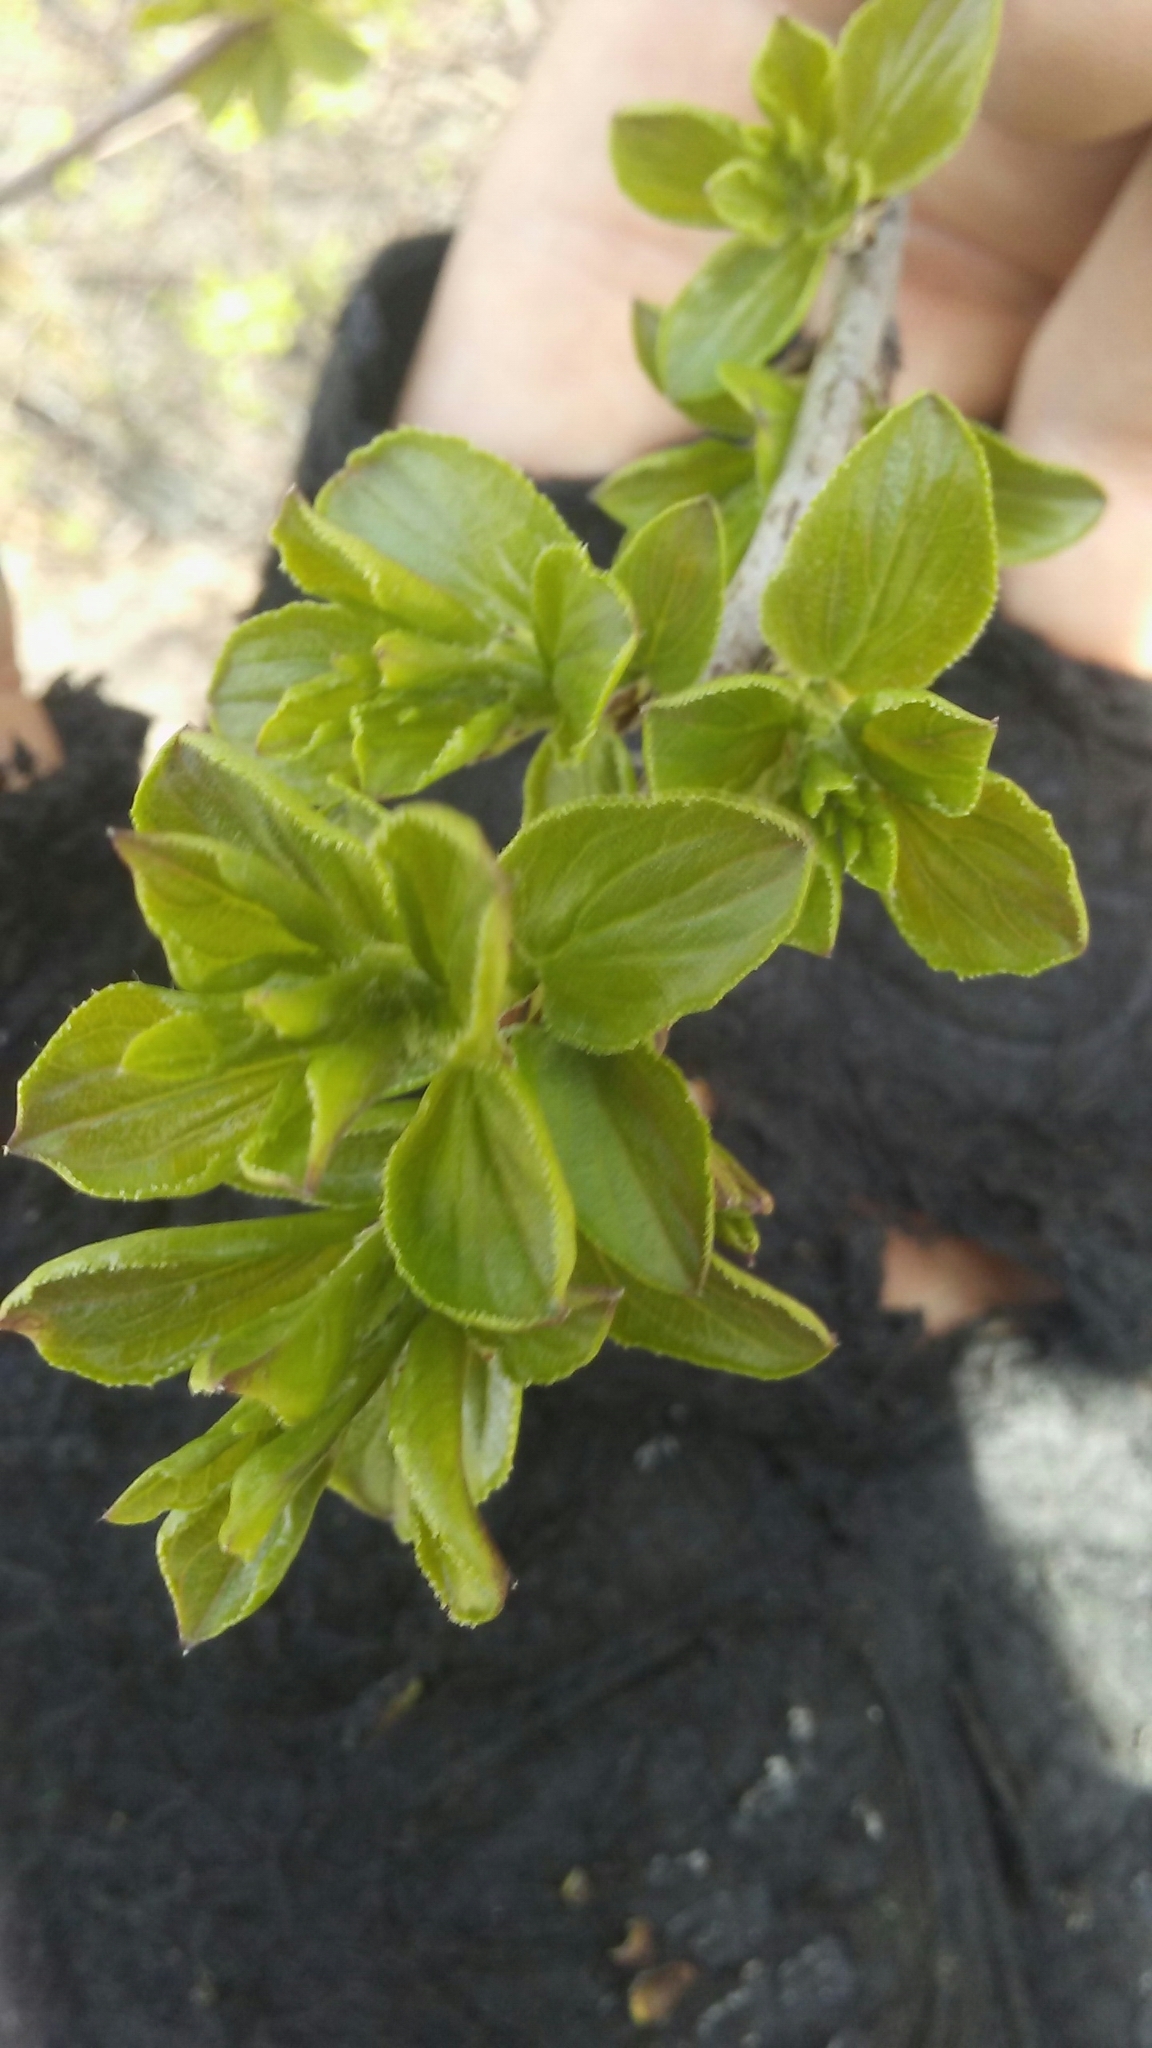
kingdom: Plantae
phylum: Tracheophyta
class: Magnoliopsida
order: Rosales
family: Rhamnaceae
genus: Rhamnus
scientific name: Rhamnus cathartica
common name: Common buckthorn
